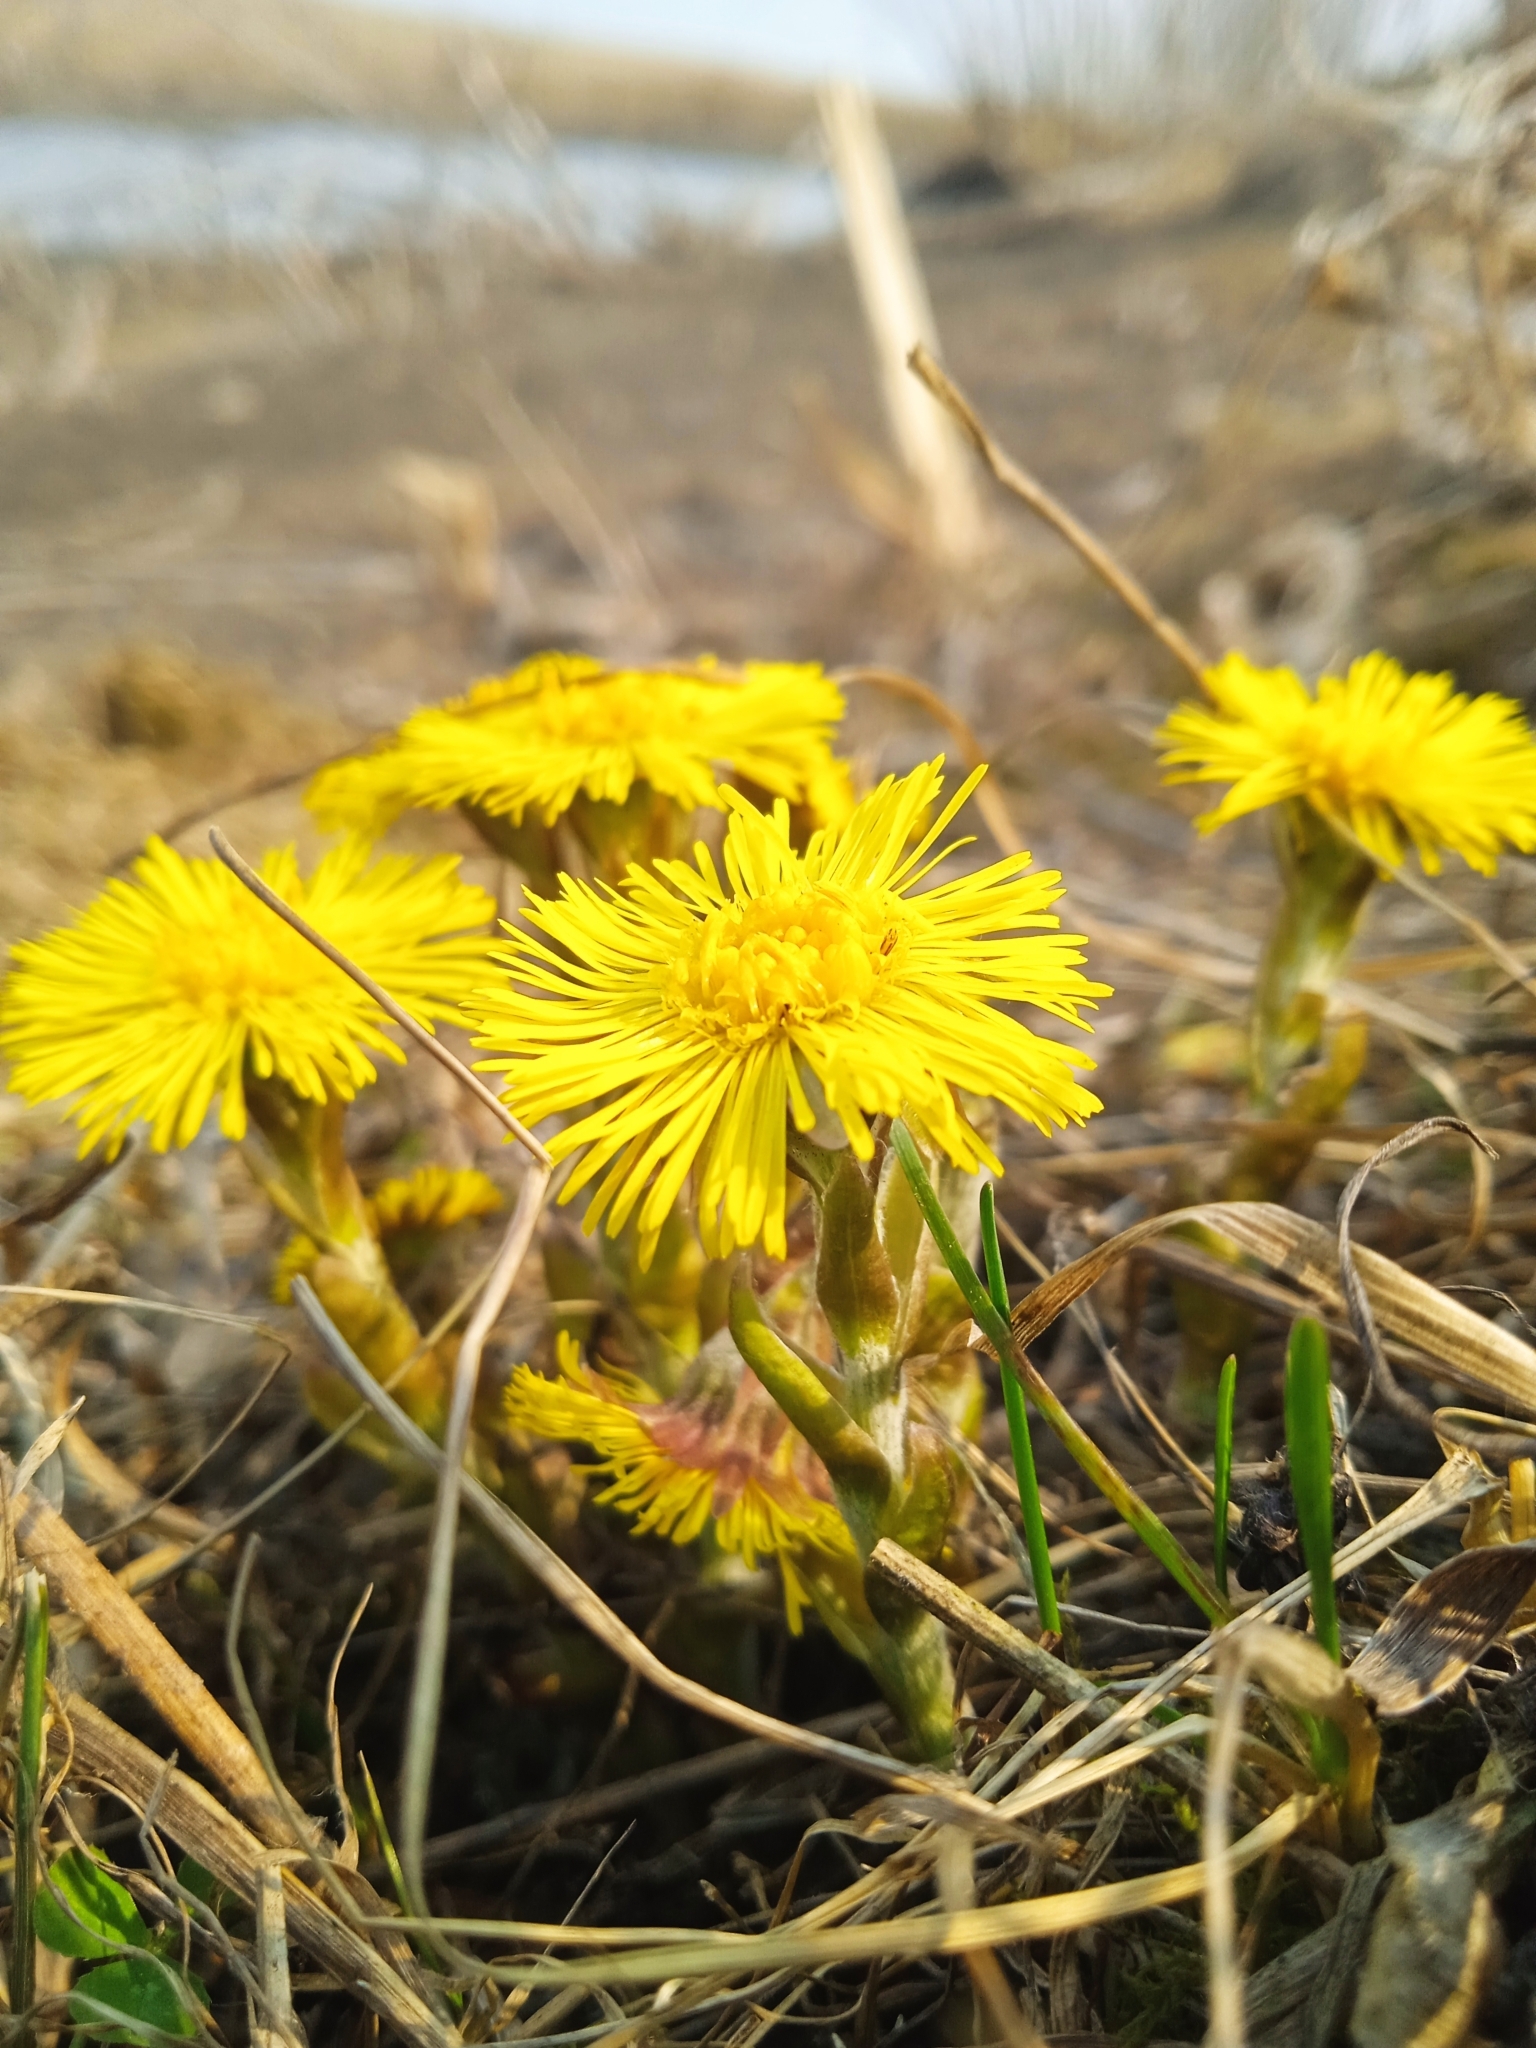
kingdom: Plantae
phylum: Tracheophyta
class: Magnoliopsida
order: Asterales
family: Asteraceae
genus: Tussilago
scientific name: Tussilago farfara
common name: Coltsfoot
